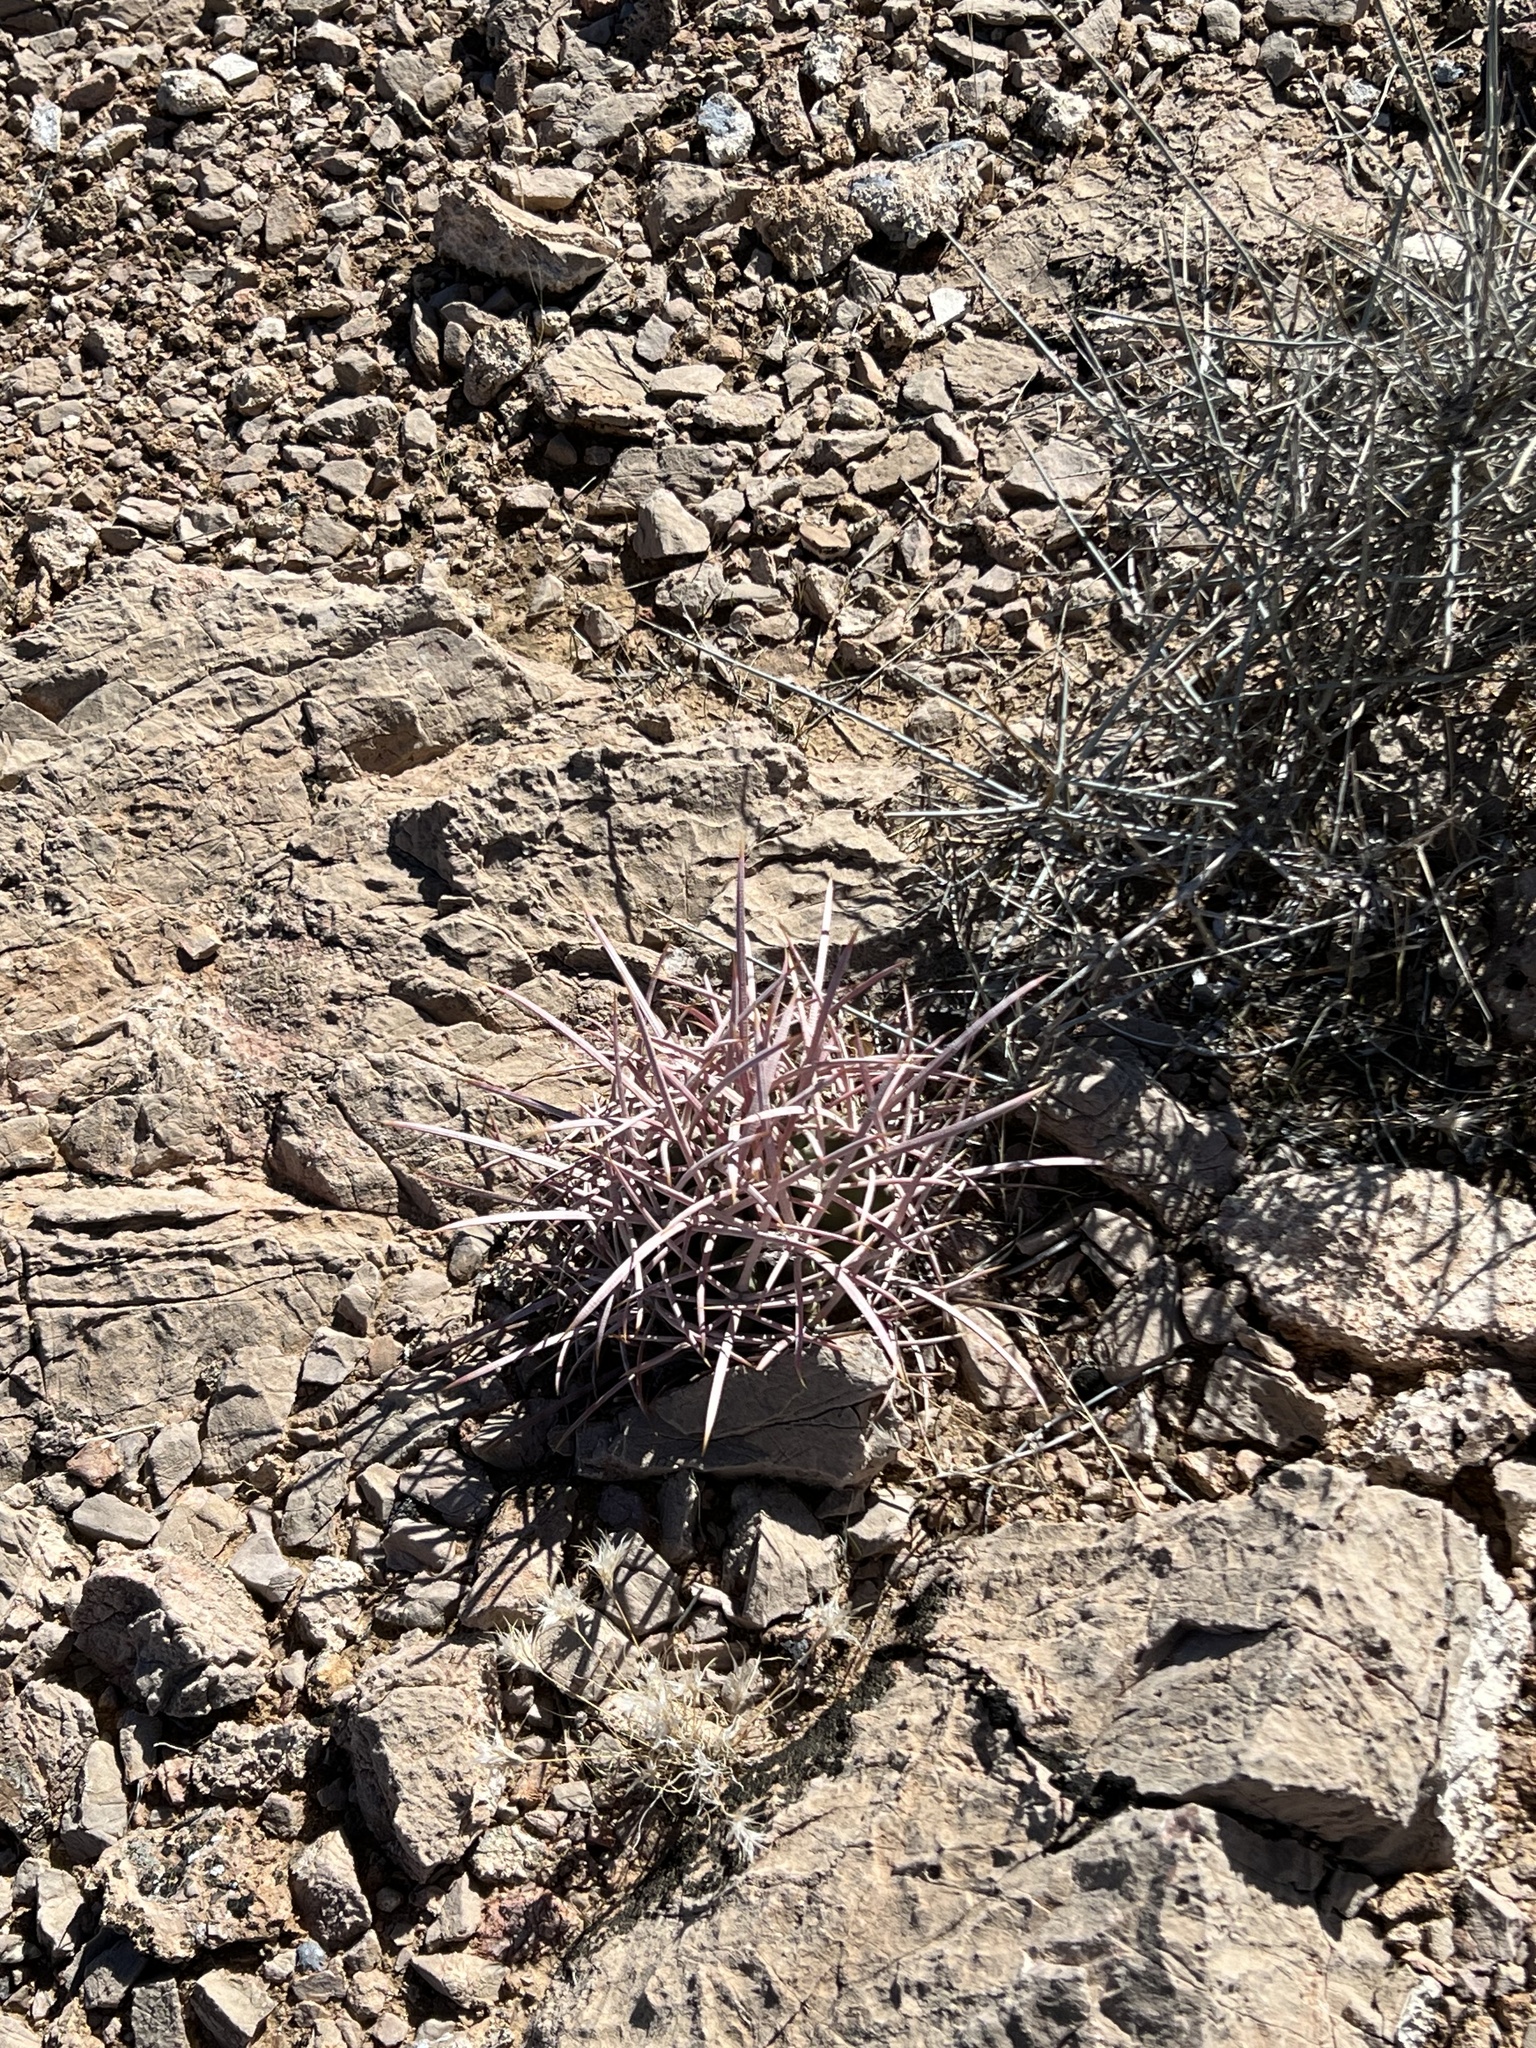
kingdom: Plantae
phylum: Tracheophyta
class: Magnoliopsida
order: Caryophyllales
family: Cactaceae
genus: Echinocactus
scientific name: Echinocactus polycephalus
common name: Cottontop cactus
